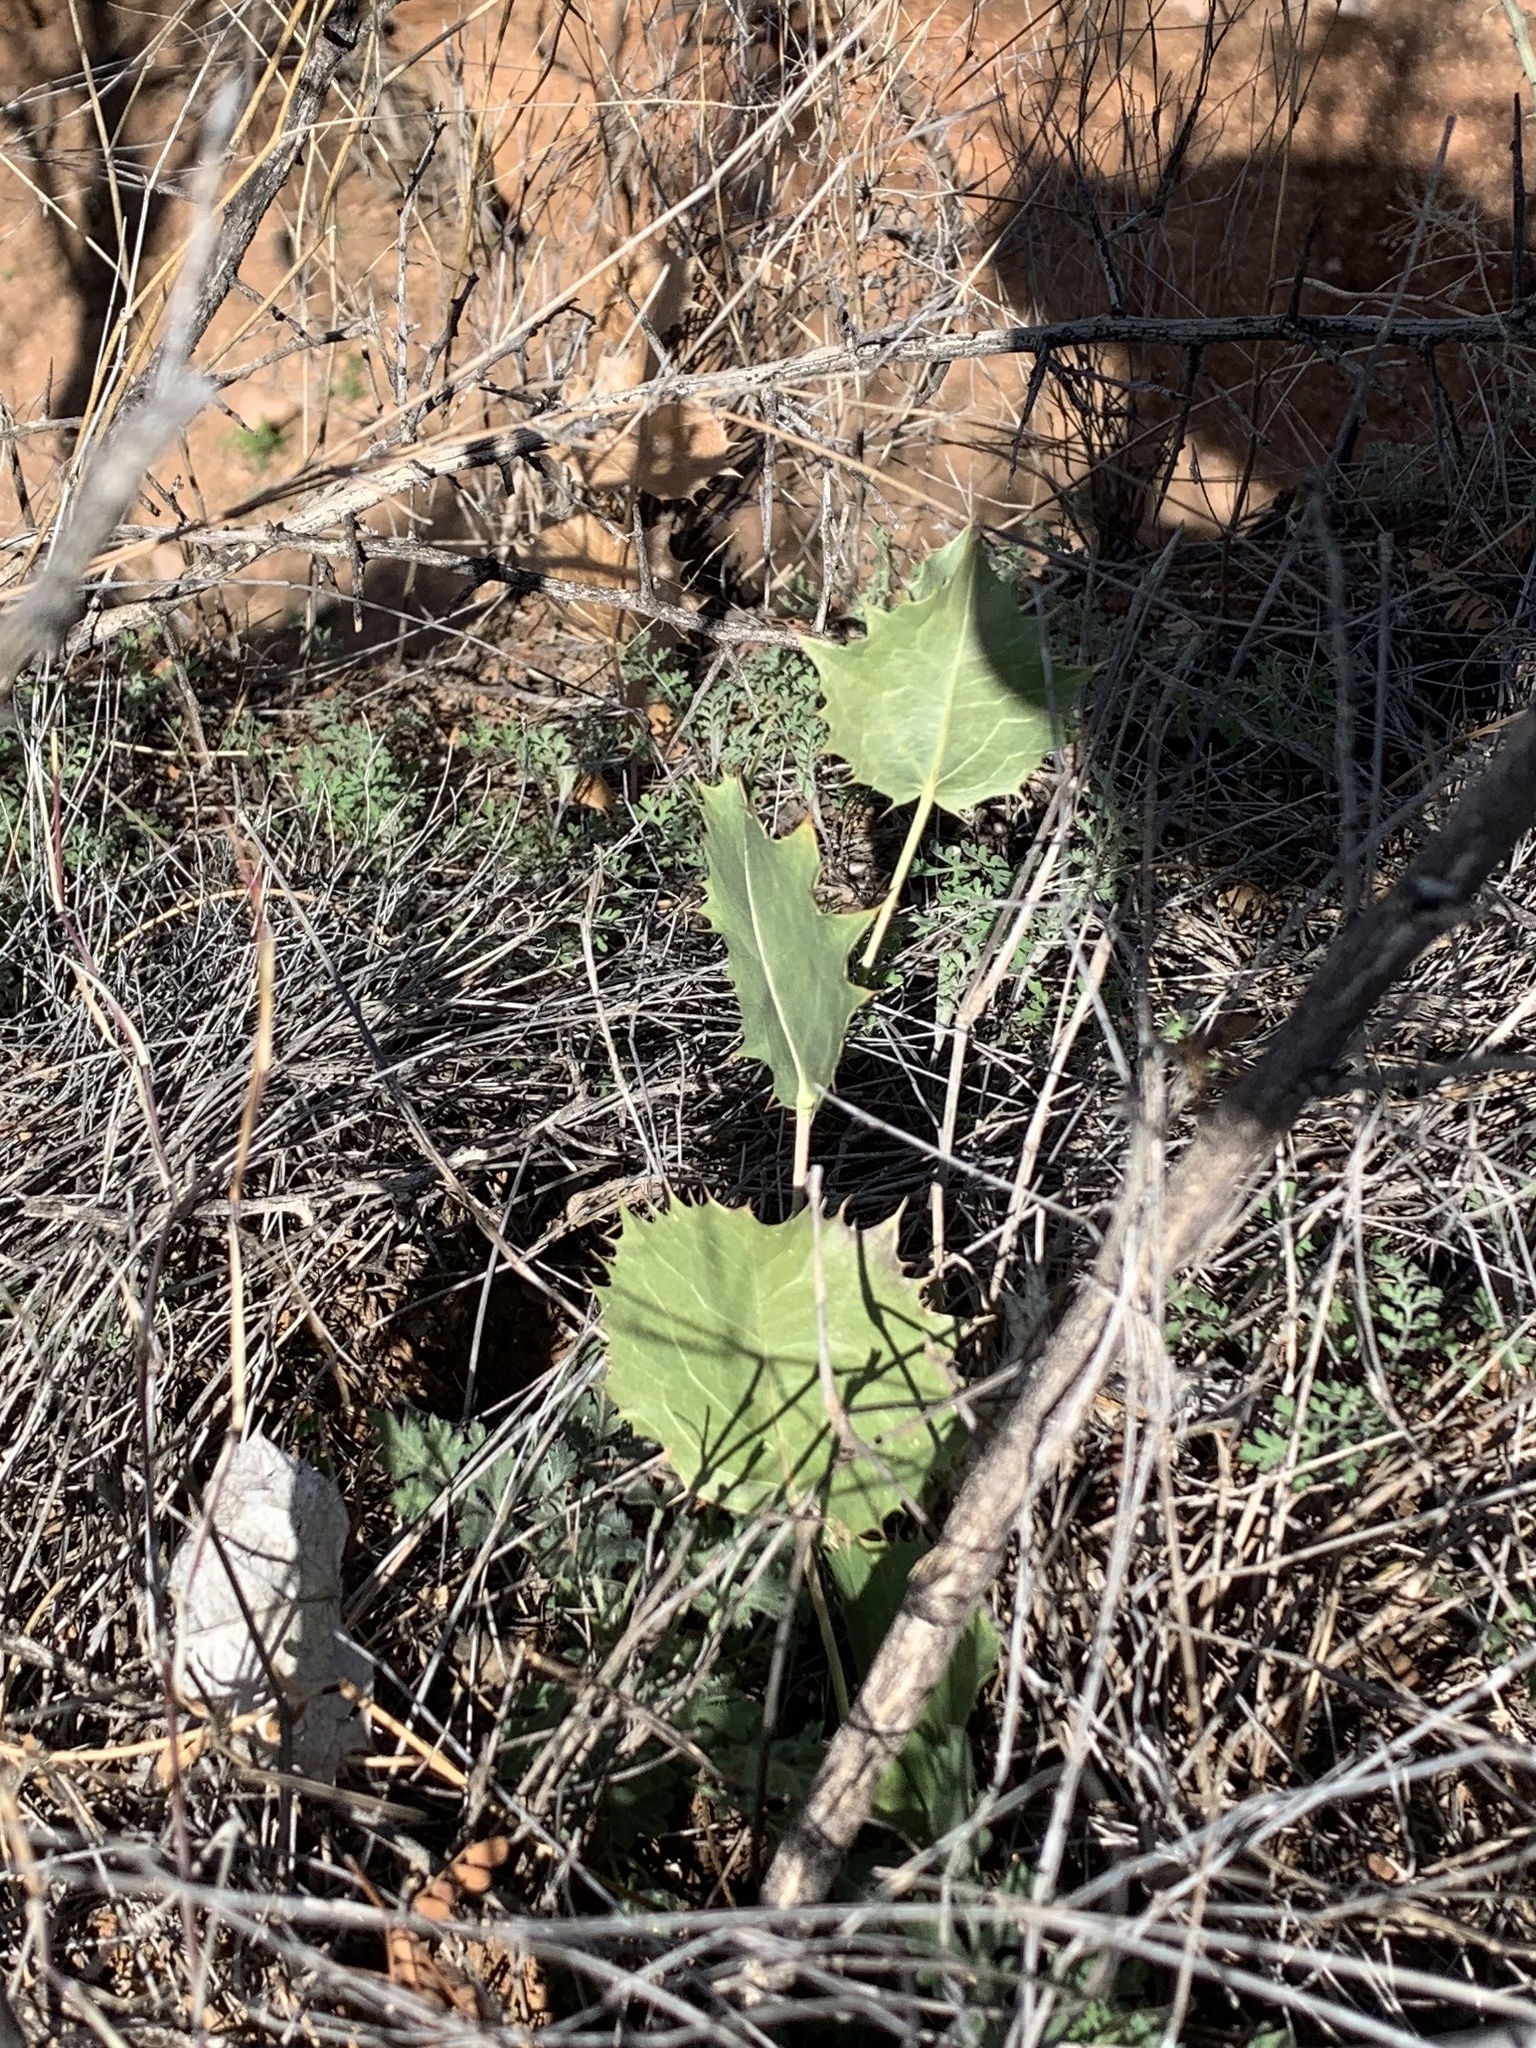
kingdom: Plantae
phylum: Tracheophyta
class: Magnoliopsida
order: Asterales
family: Asteraceae
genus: Acourtia
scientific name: Acourtia nana
